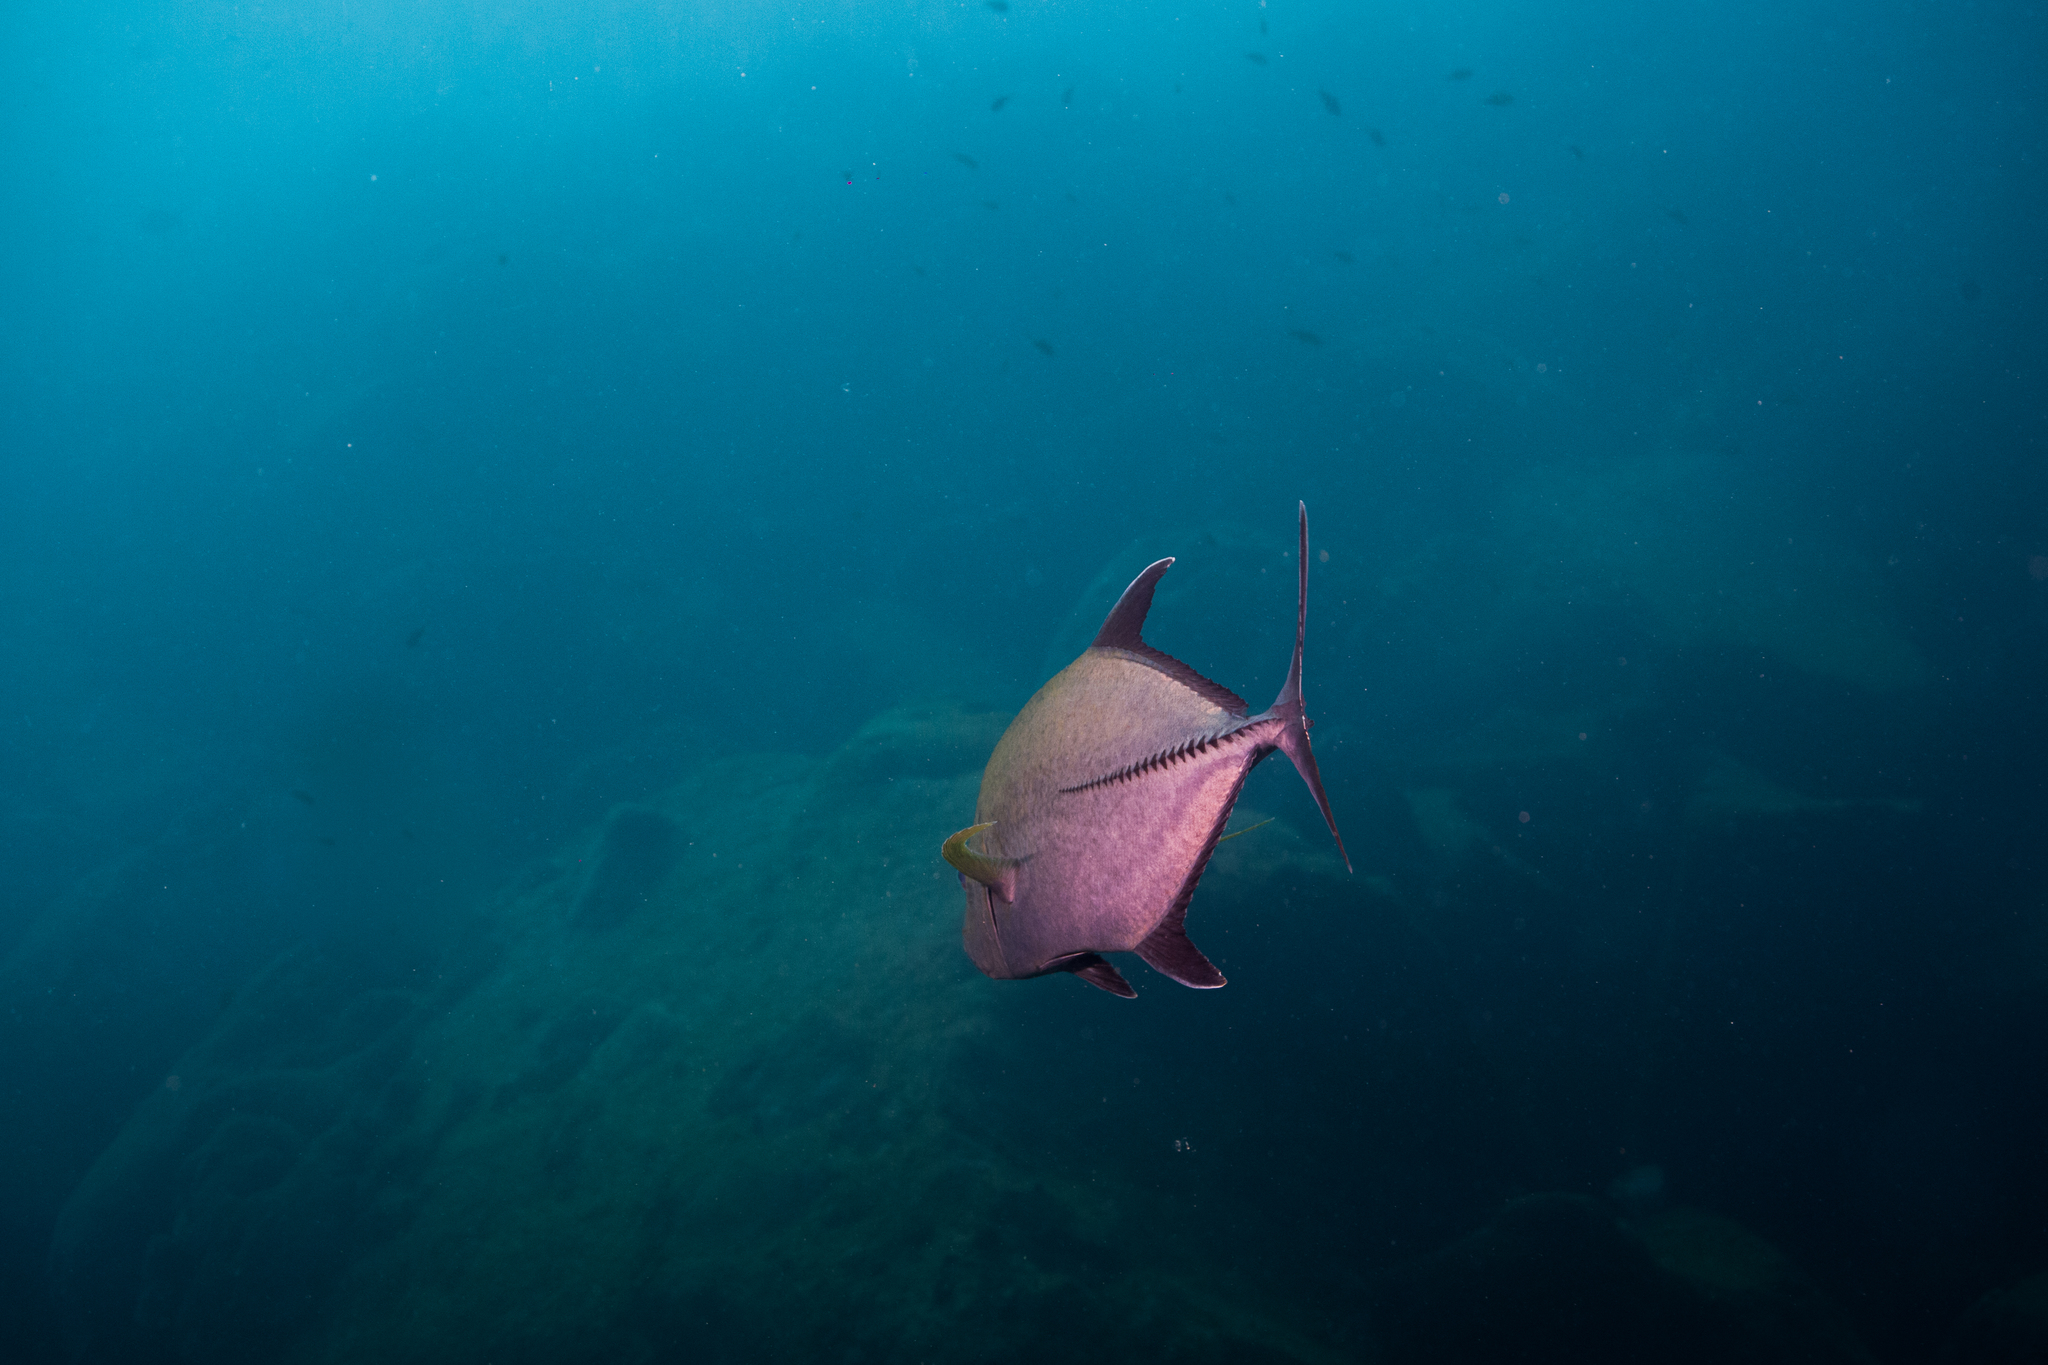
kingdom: Animalia
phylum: Chordata
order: Perciformes
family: Carangidae
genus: Caranx
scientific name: Caranx lugubris
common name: Black jack
